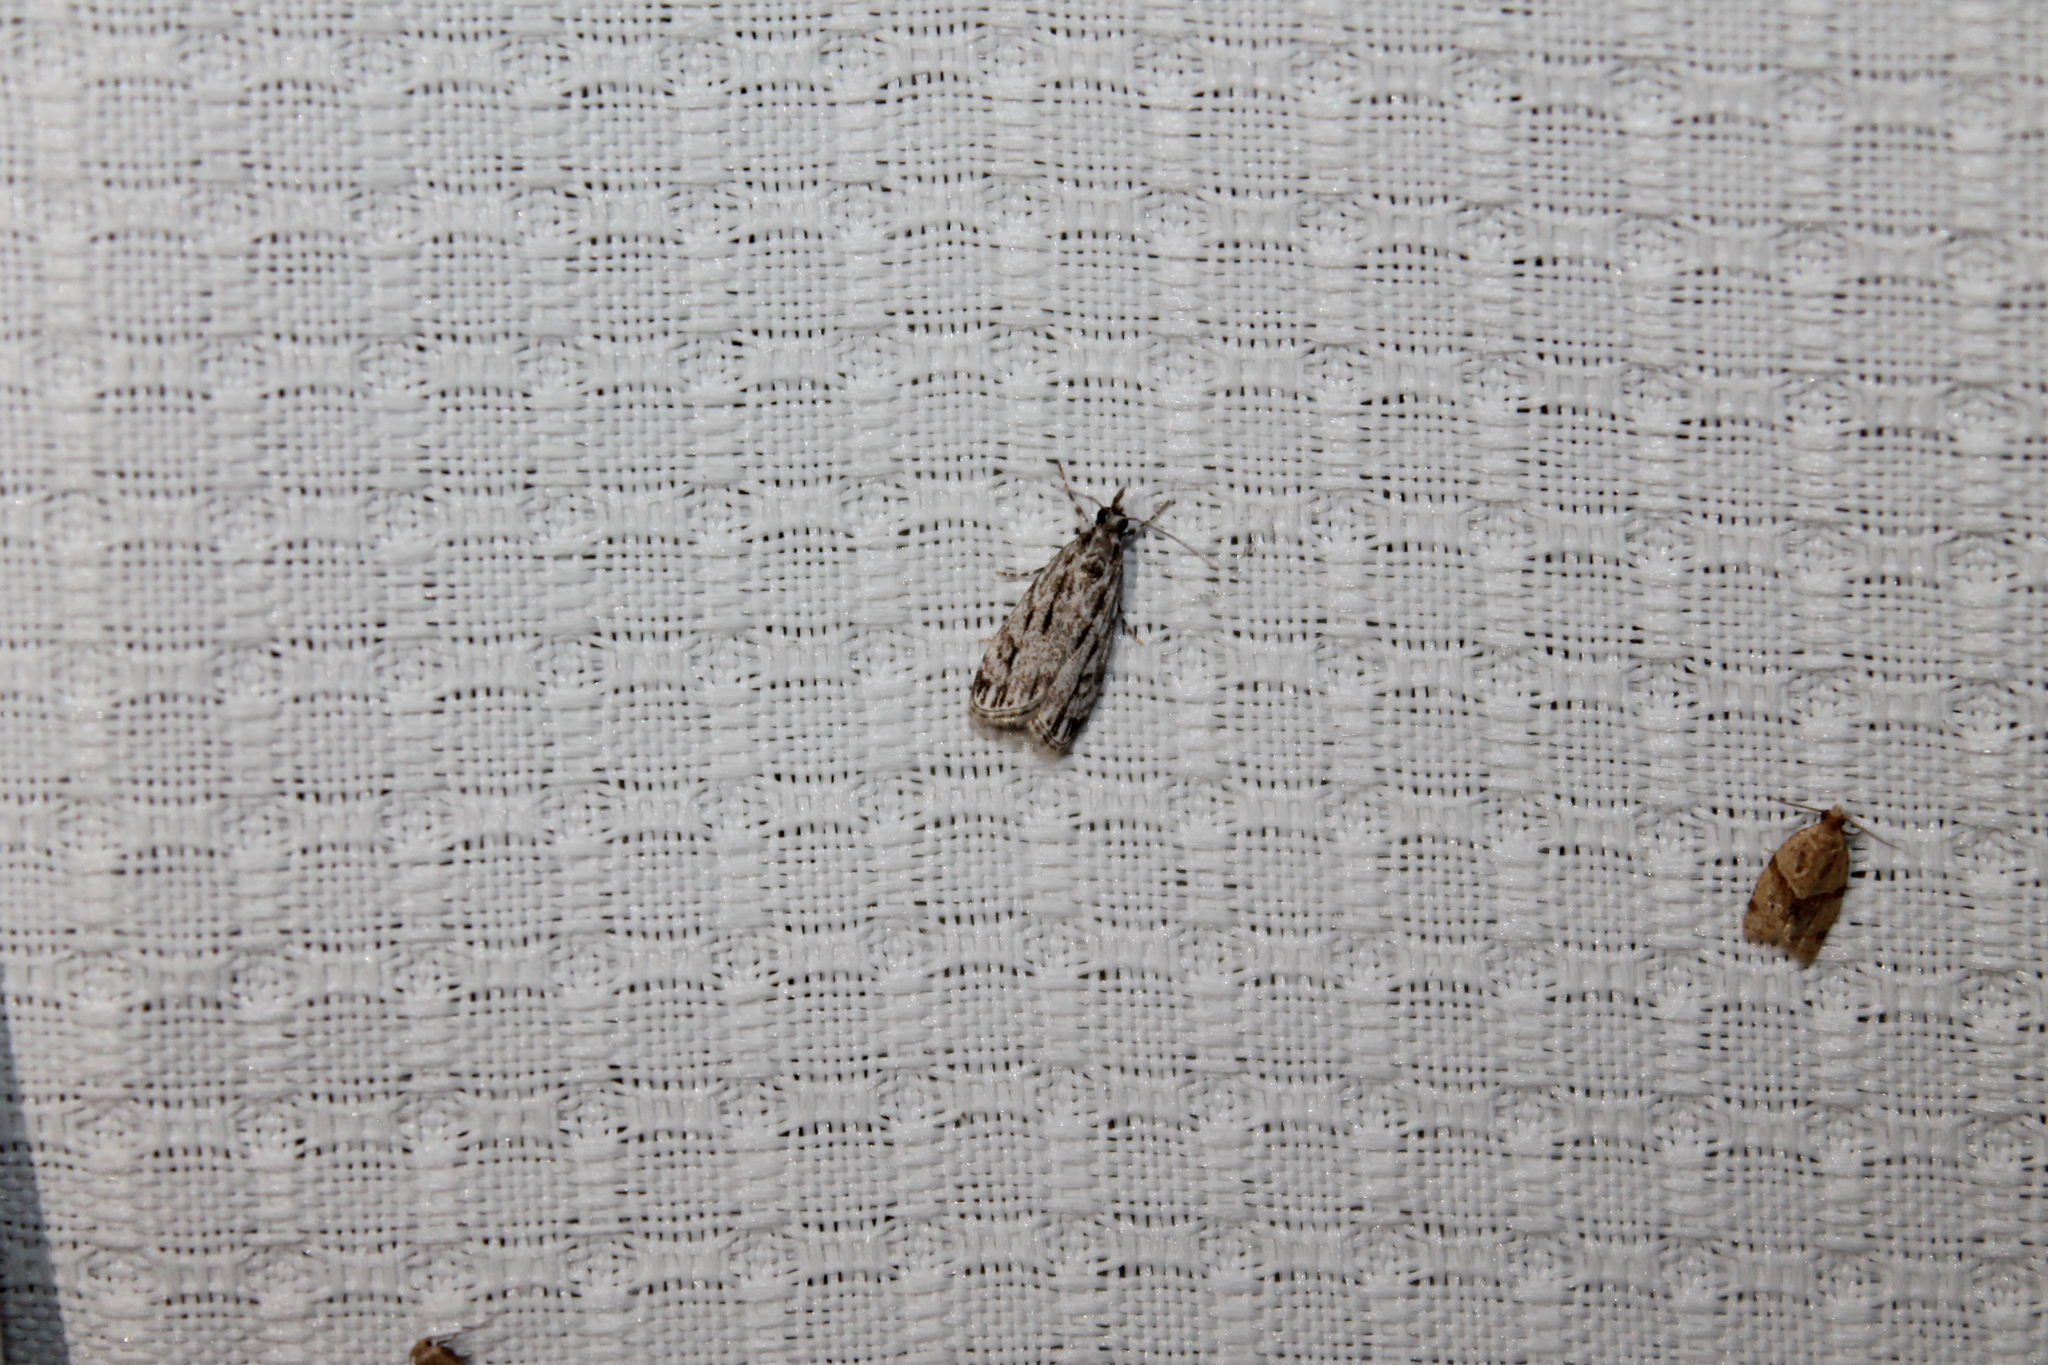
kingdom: Animalia
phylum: Arthropoda
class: Insecta
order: Lepidoptera
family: Crambidae
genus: Eudonia
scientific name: Eudonia strigalis
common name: Striped eudonia moth
